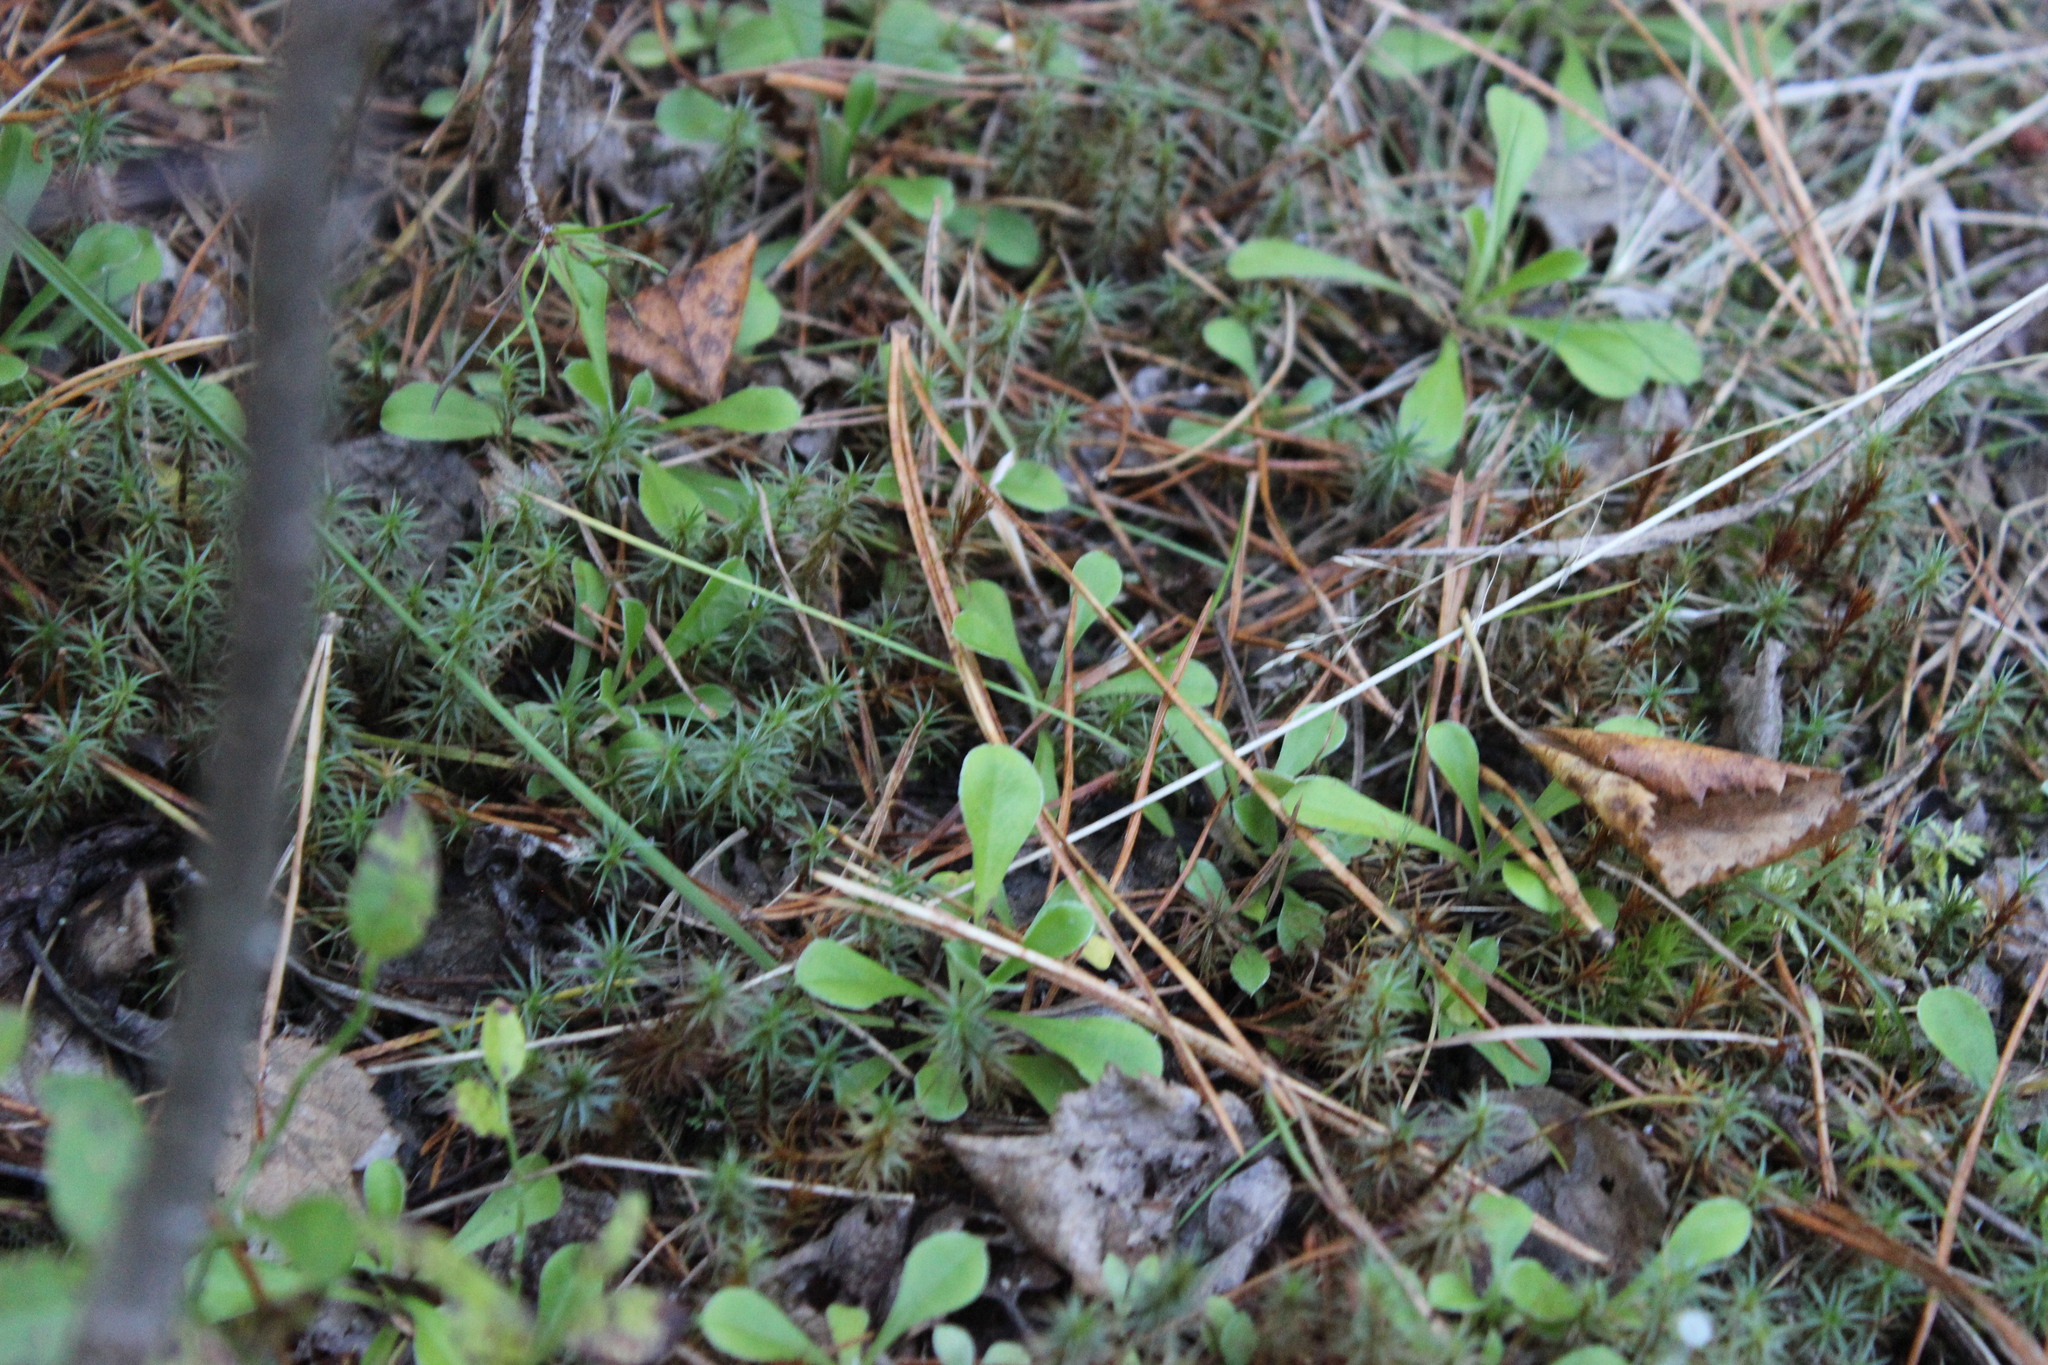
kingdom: Plantae
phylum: Tracheophyta
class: Magnoliopsida
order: Asterales
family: Asteraceae
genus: Antennaria
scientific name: Antennaria dioica
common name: Mountain everlasting
